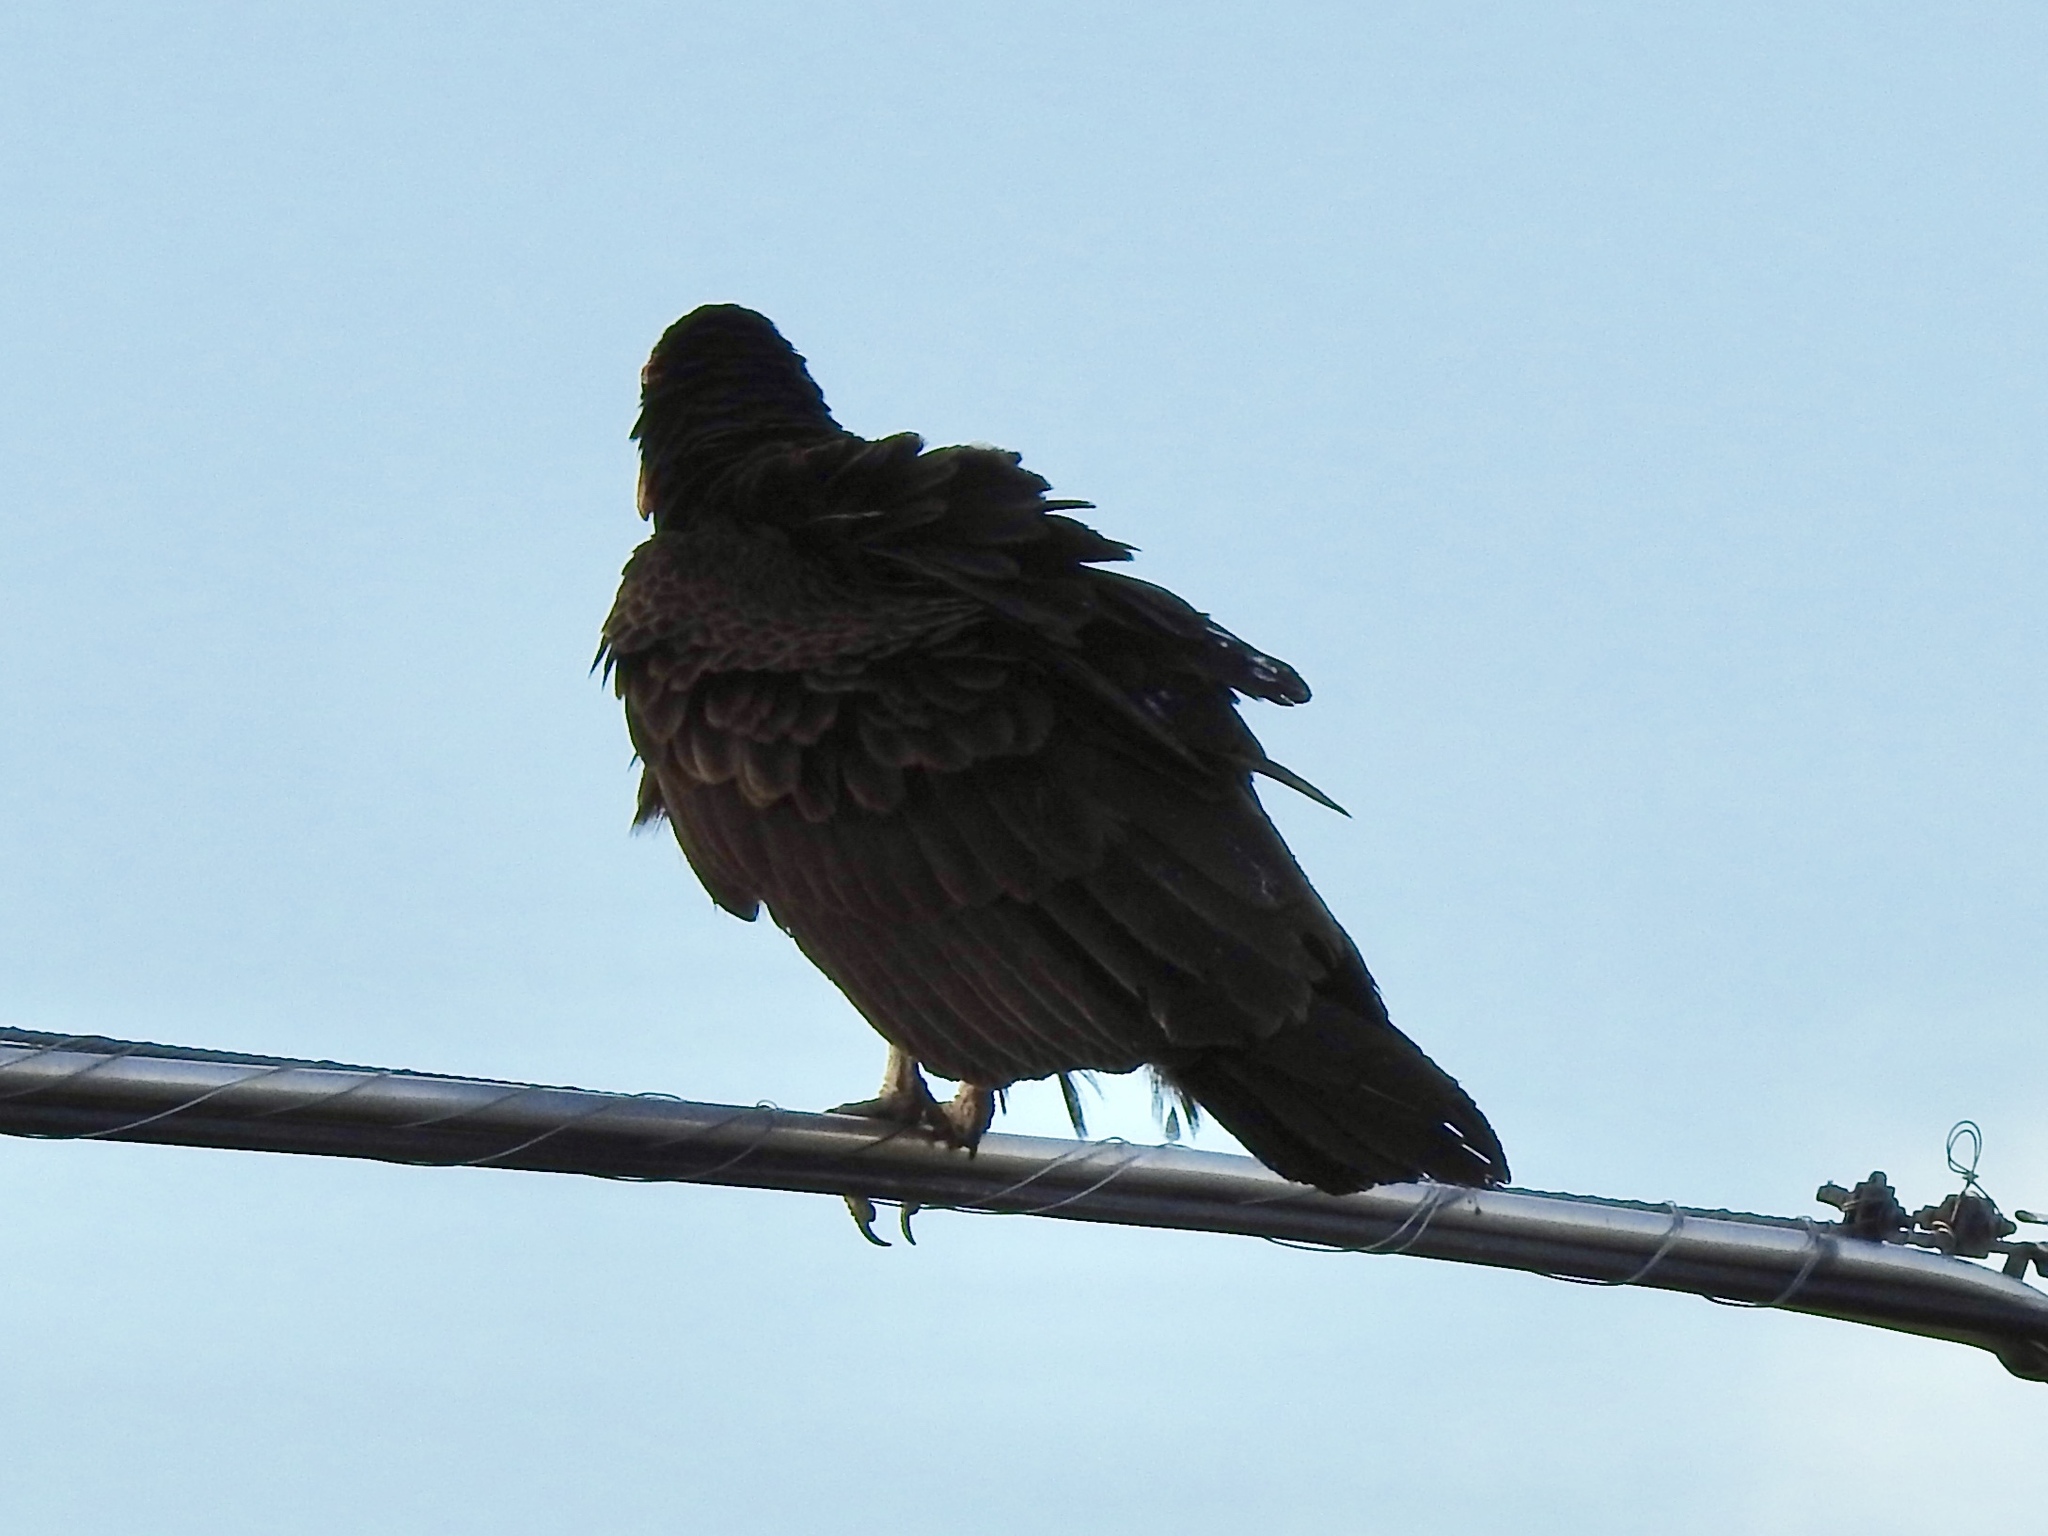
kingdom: Animalia
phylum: Chordata
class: Aves
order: Accipitriformes
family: Cathartidae
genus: Cathartes
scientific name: Cathartes aura
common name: Turkey vulture
